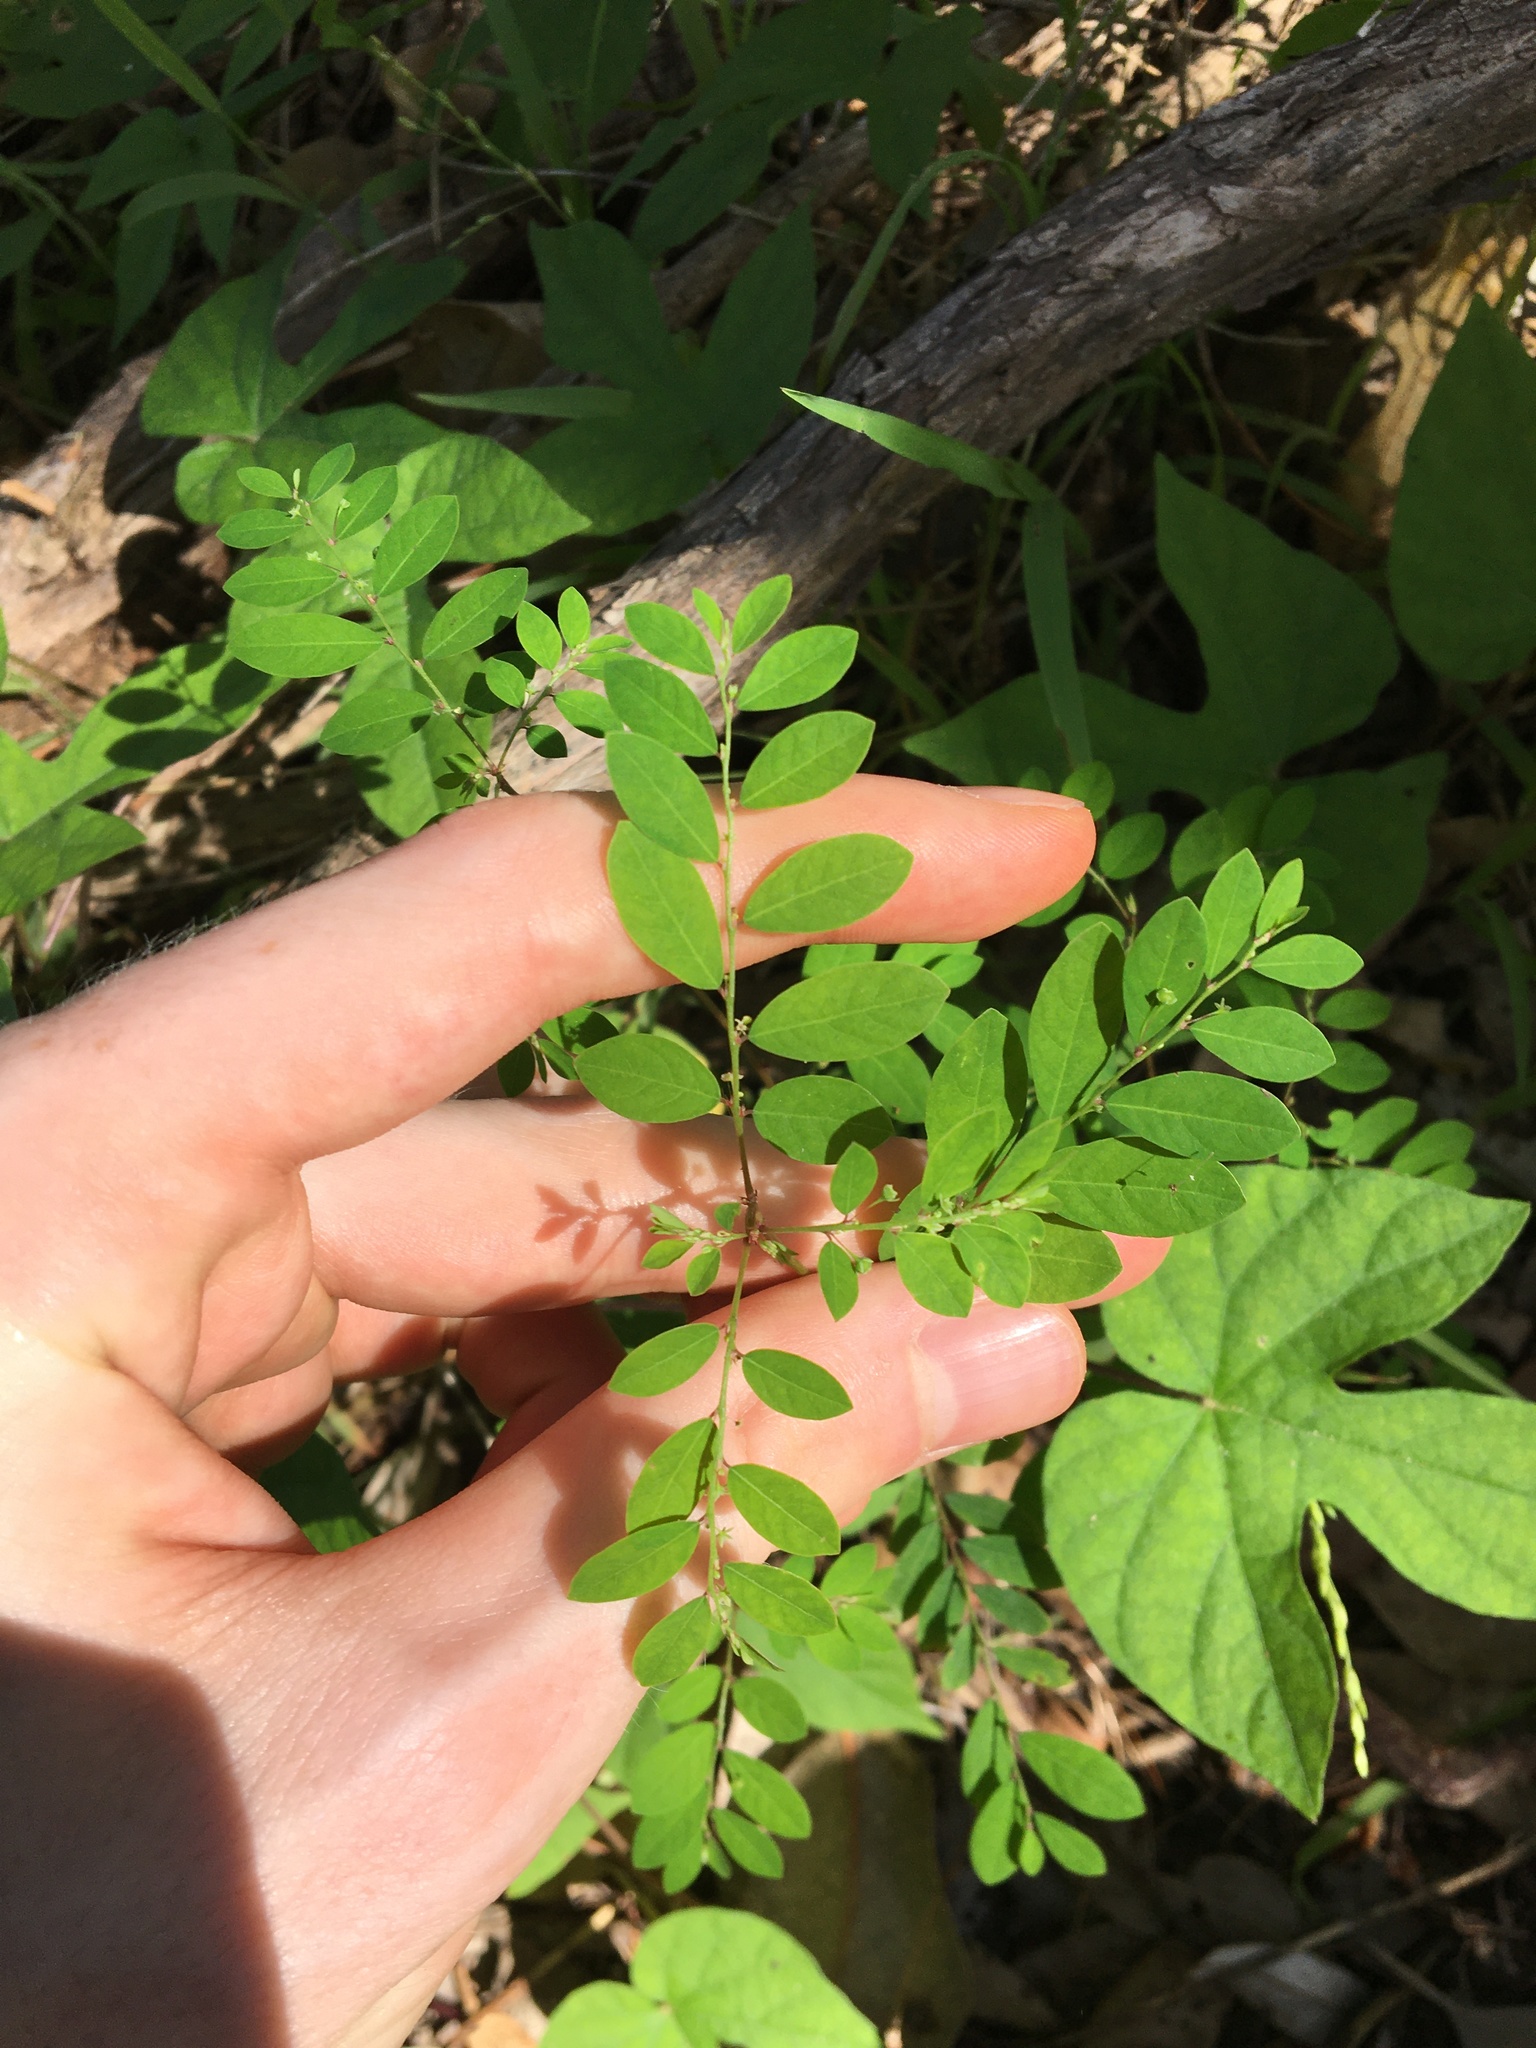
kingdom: Plantae
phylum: Tracheophyta
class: Magnoliopsida
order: Malpighiales
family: Phyllanthaceae
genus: Phyllanthus
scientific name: Phyllanthus tenellus
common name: Mascarene island leaf-flower
